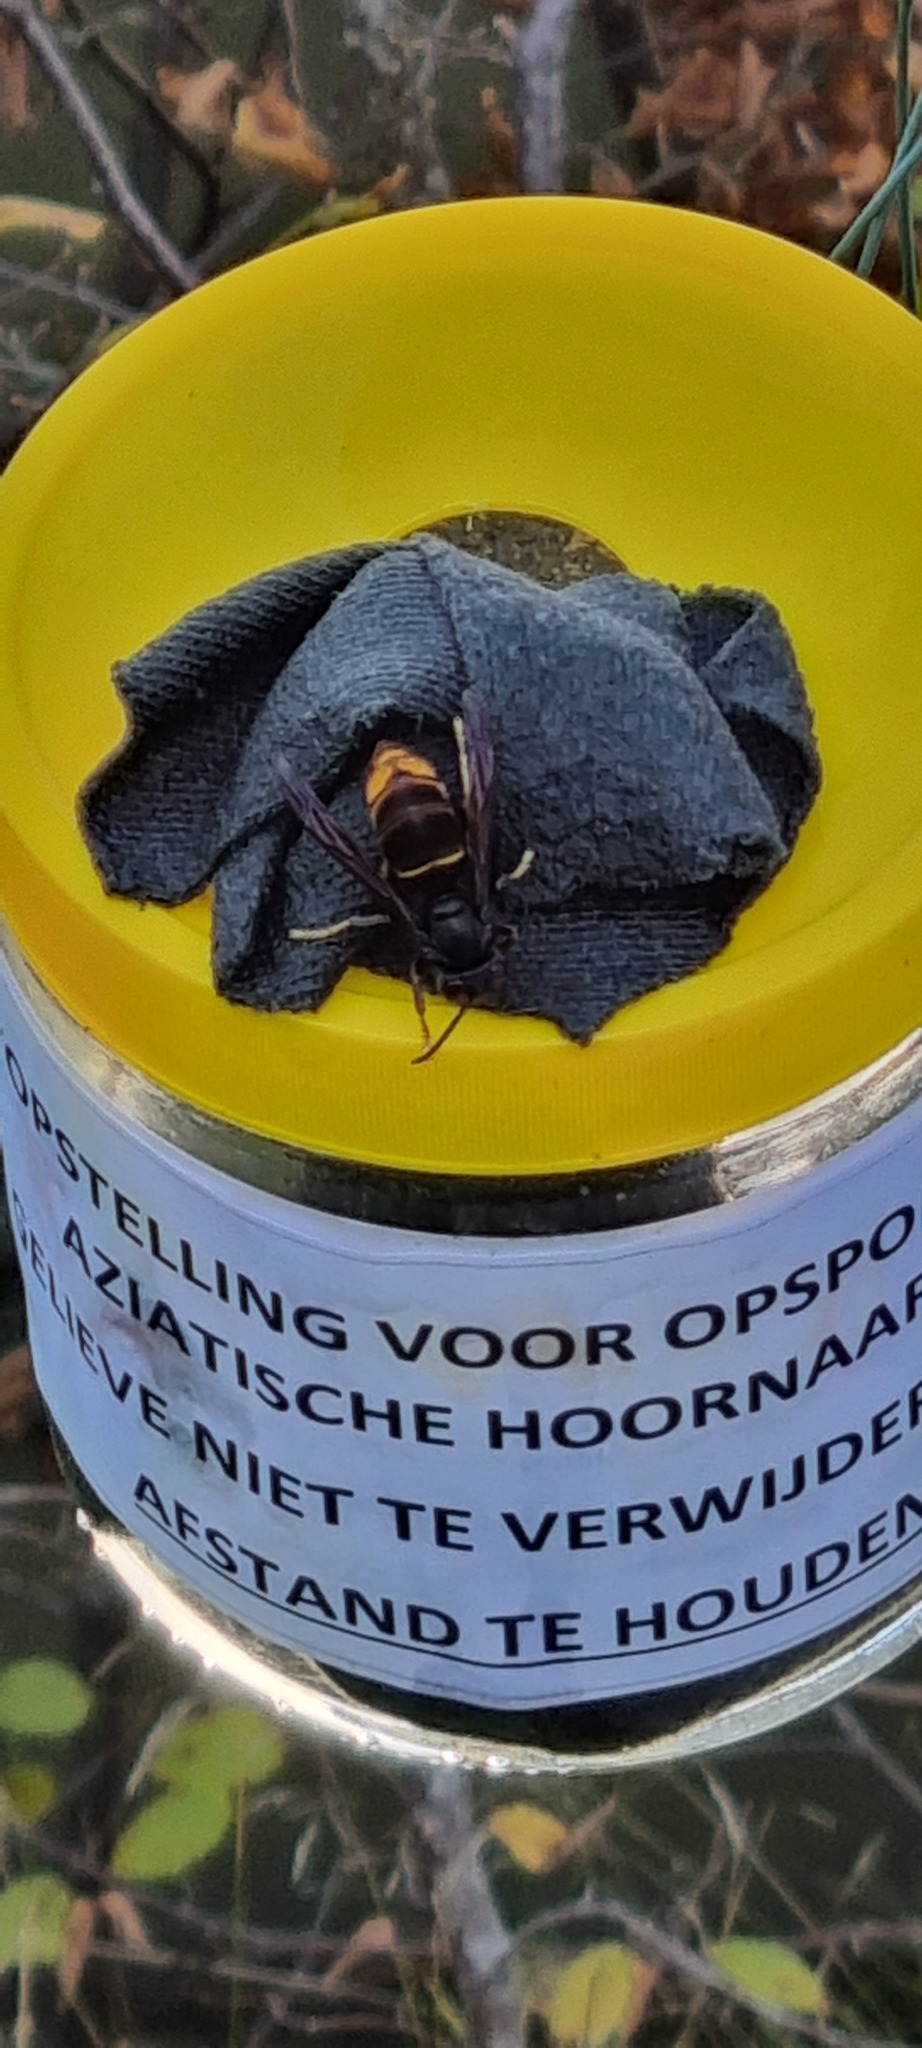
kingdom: Animalia
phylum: Arthropoda
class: Insecta
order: Hymenoptera
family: Vespidae
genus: Vespa
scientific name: Vespa velutina
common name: Asian hornet
